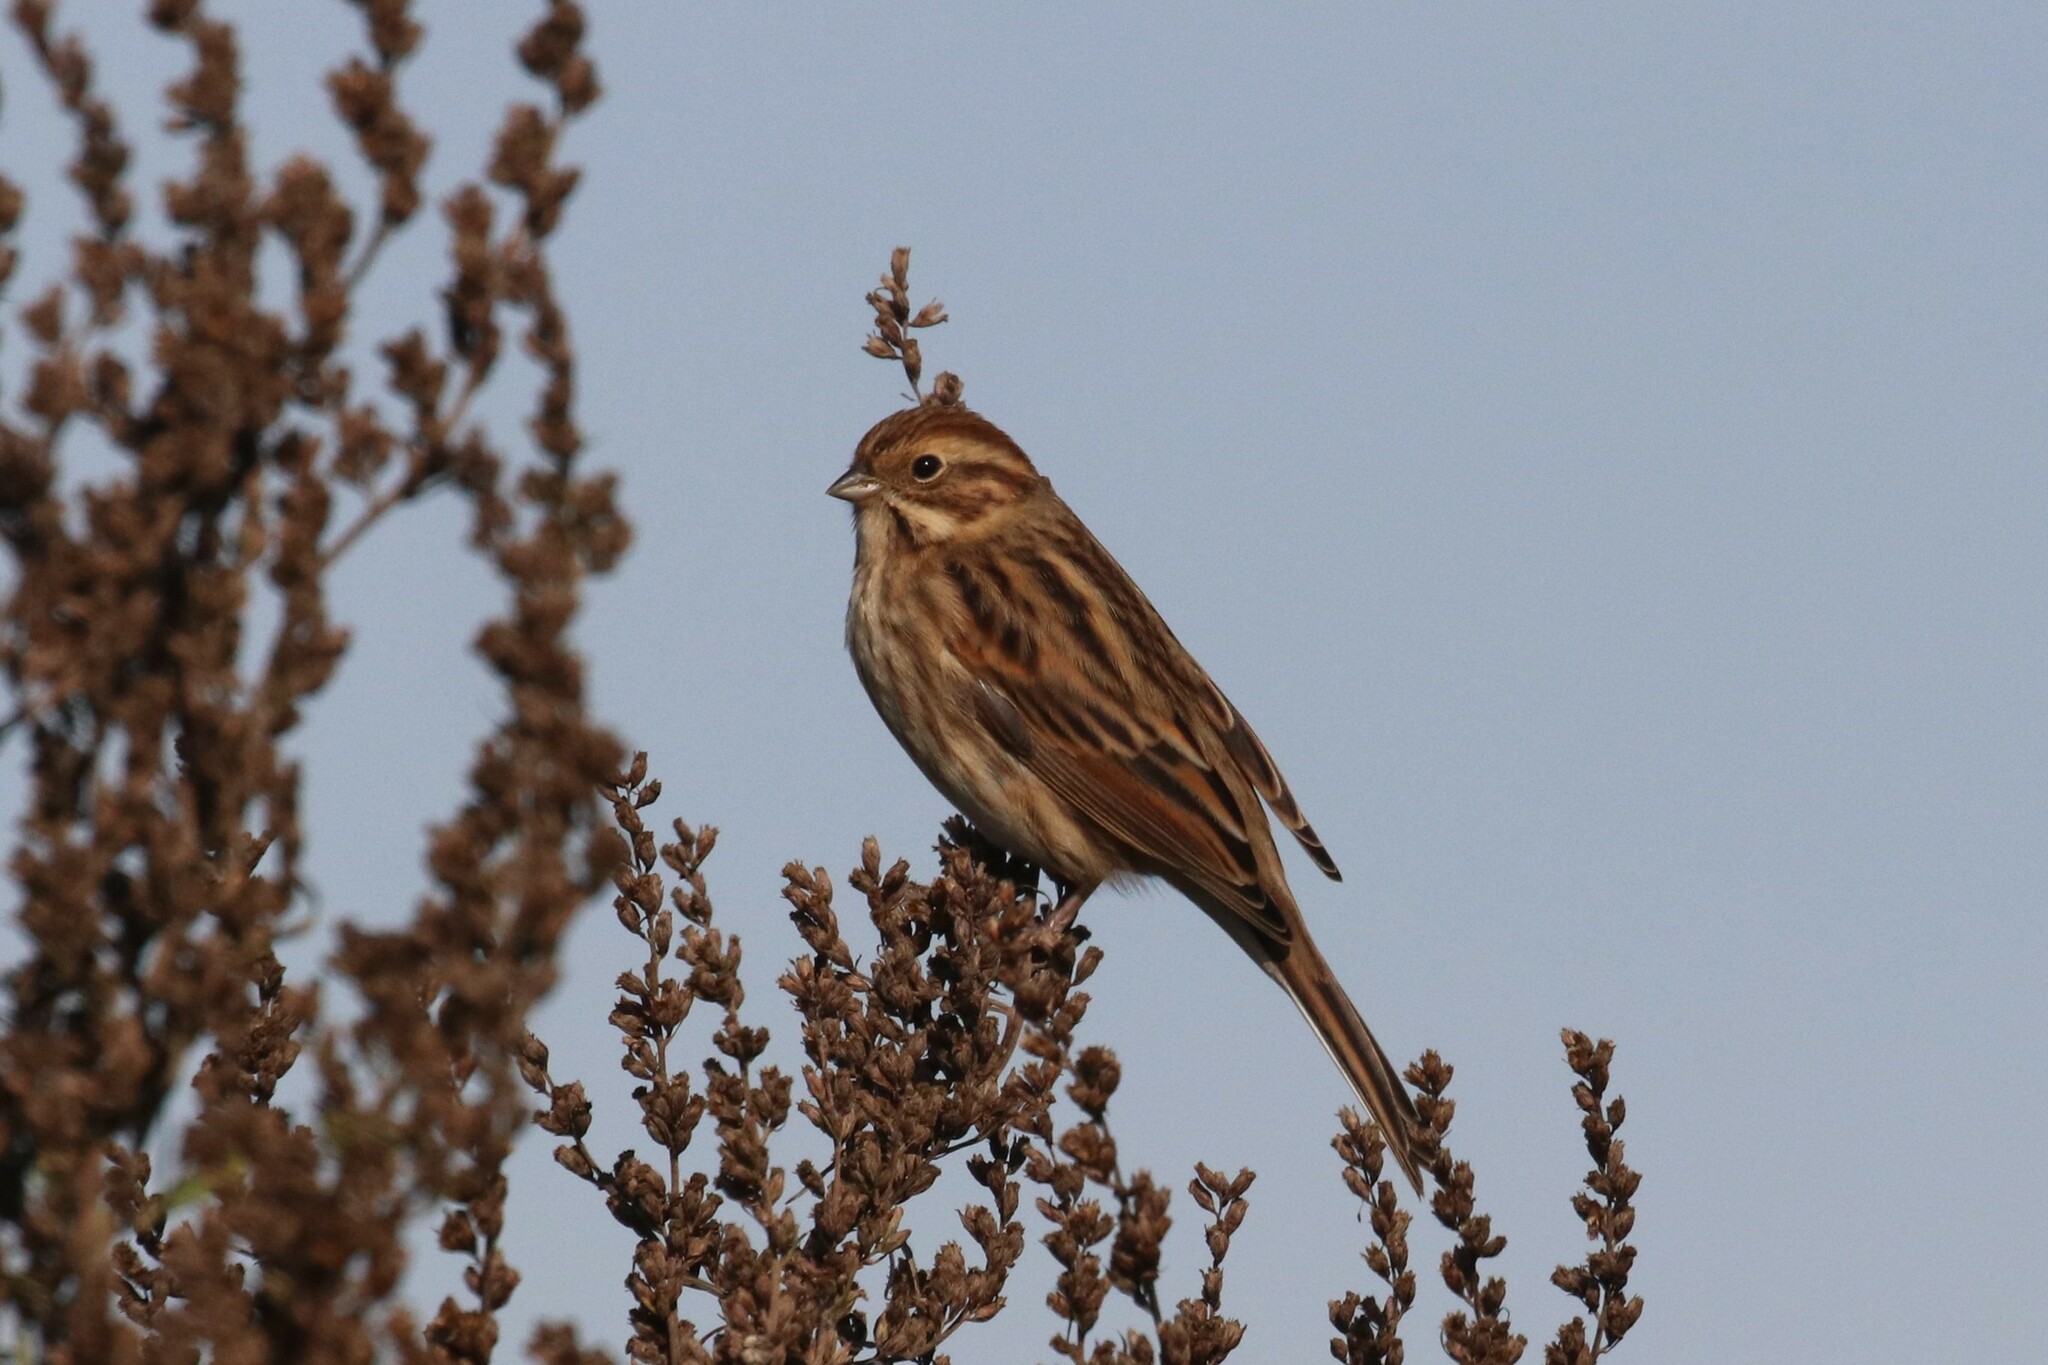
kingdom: Animalia
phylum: Chordata
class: Aves
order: Passeriformes
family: Emberizidae
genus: Emberiza
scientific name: Emberiza schoeniclus
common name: Reed bunting
